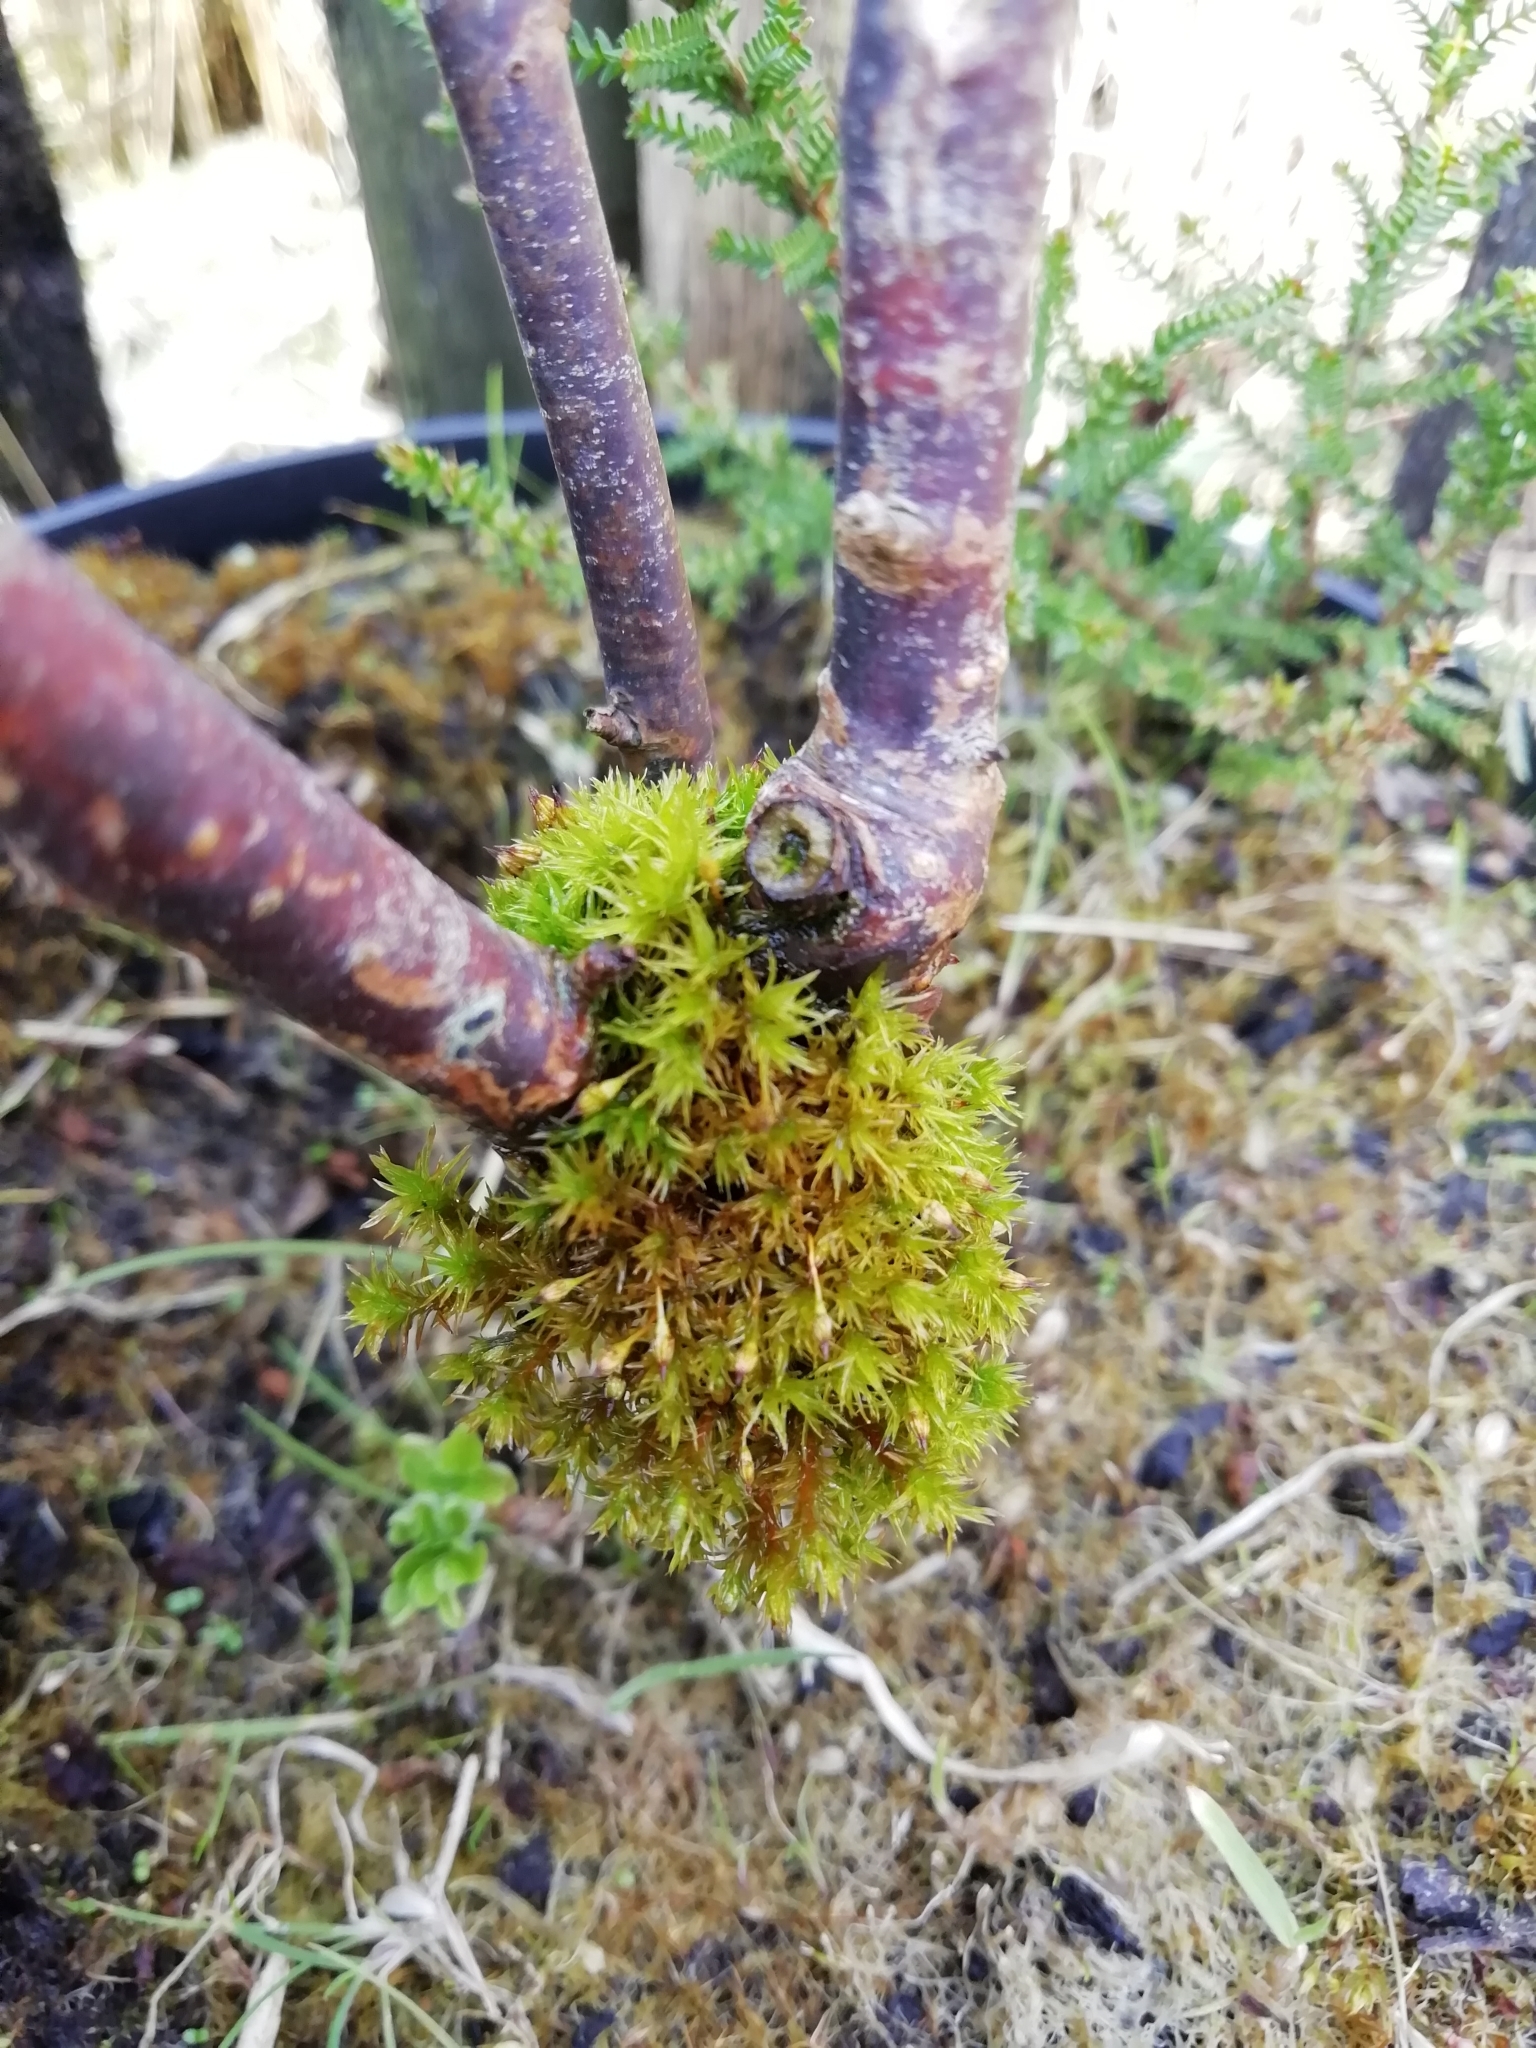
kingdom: Plantae
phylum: Bryophyta
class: Bryopsida
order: Orthotrichales
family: Orthotrichaceae
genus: Orthotrichum
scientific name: Orthotrichum pulchellum
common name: Elegant bristle-moss
